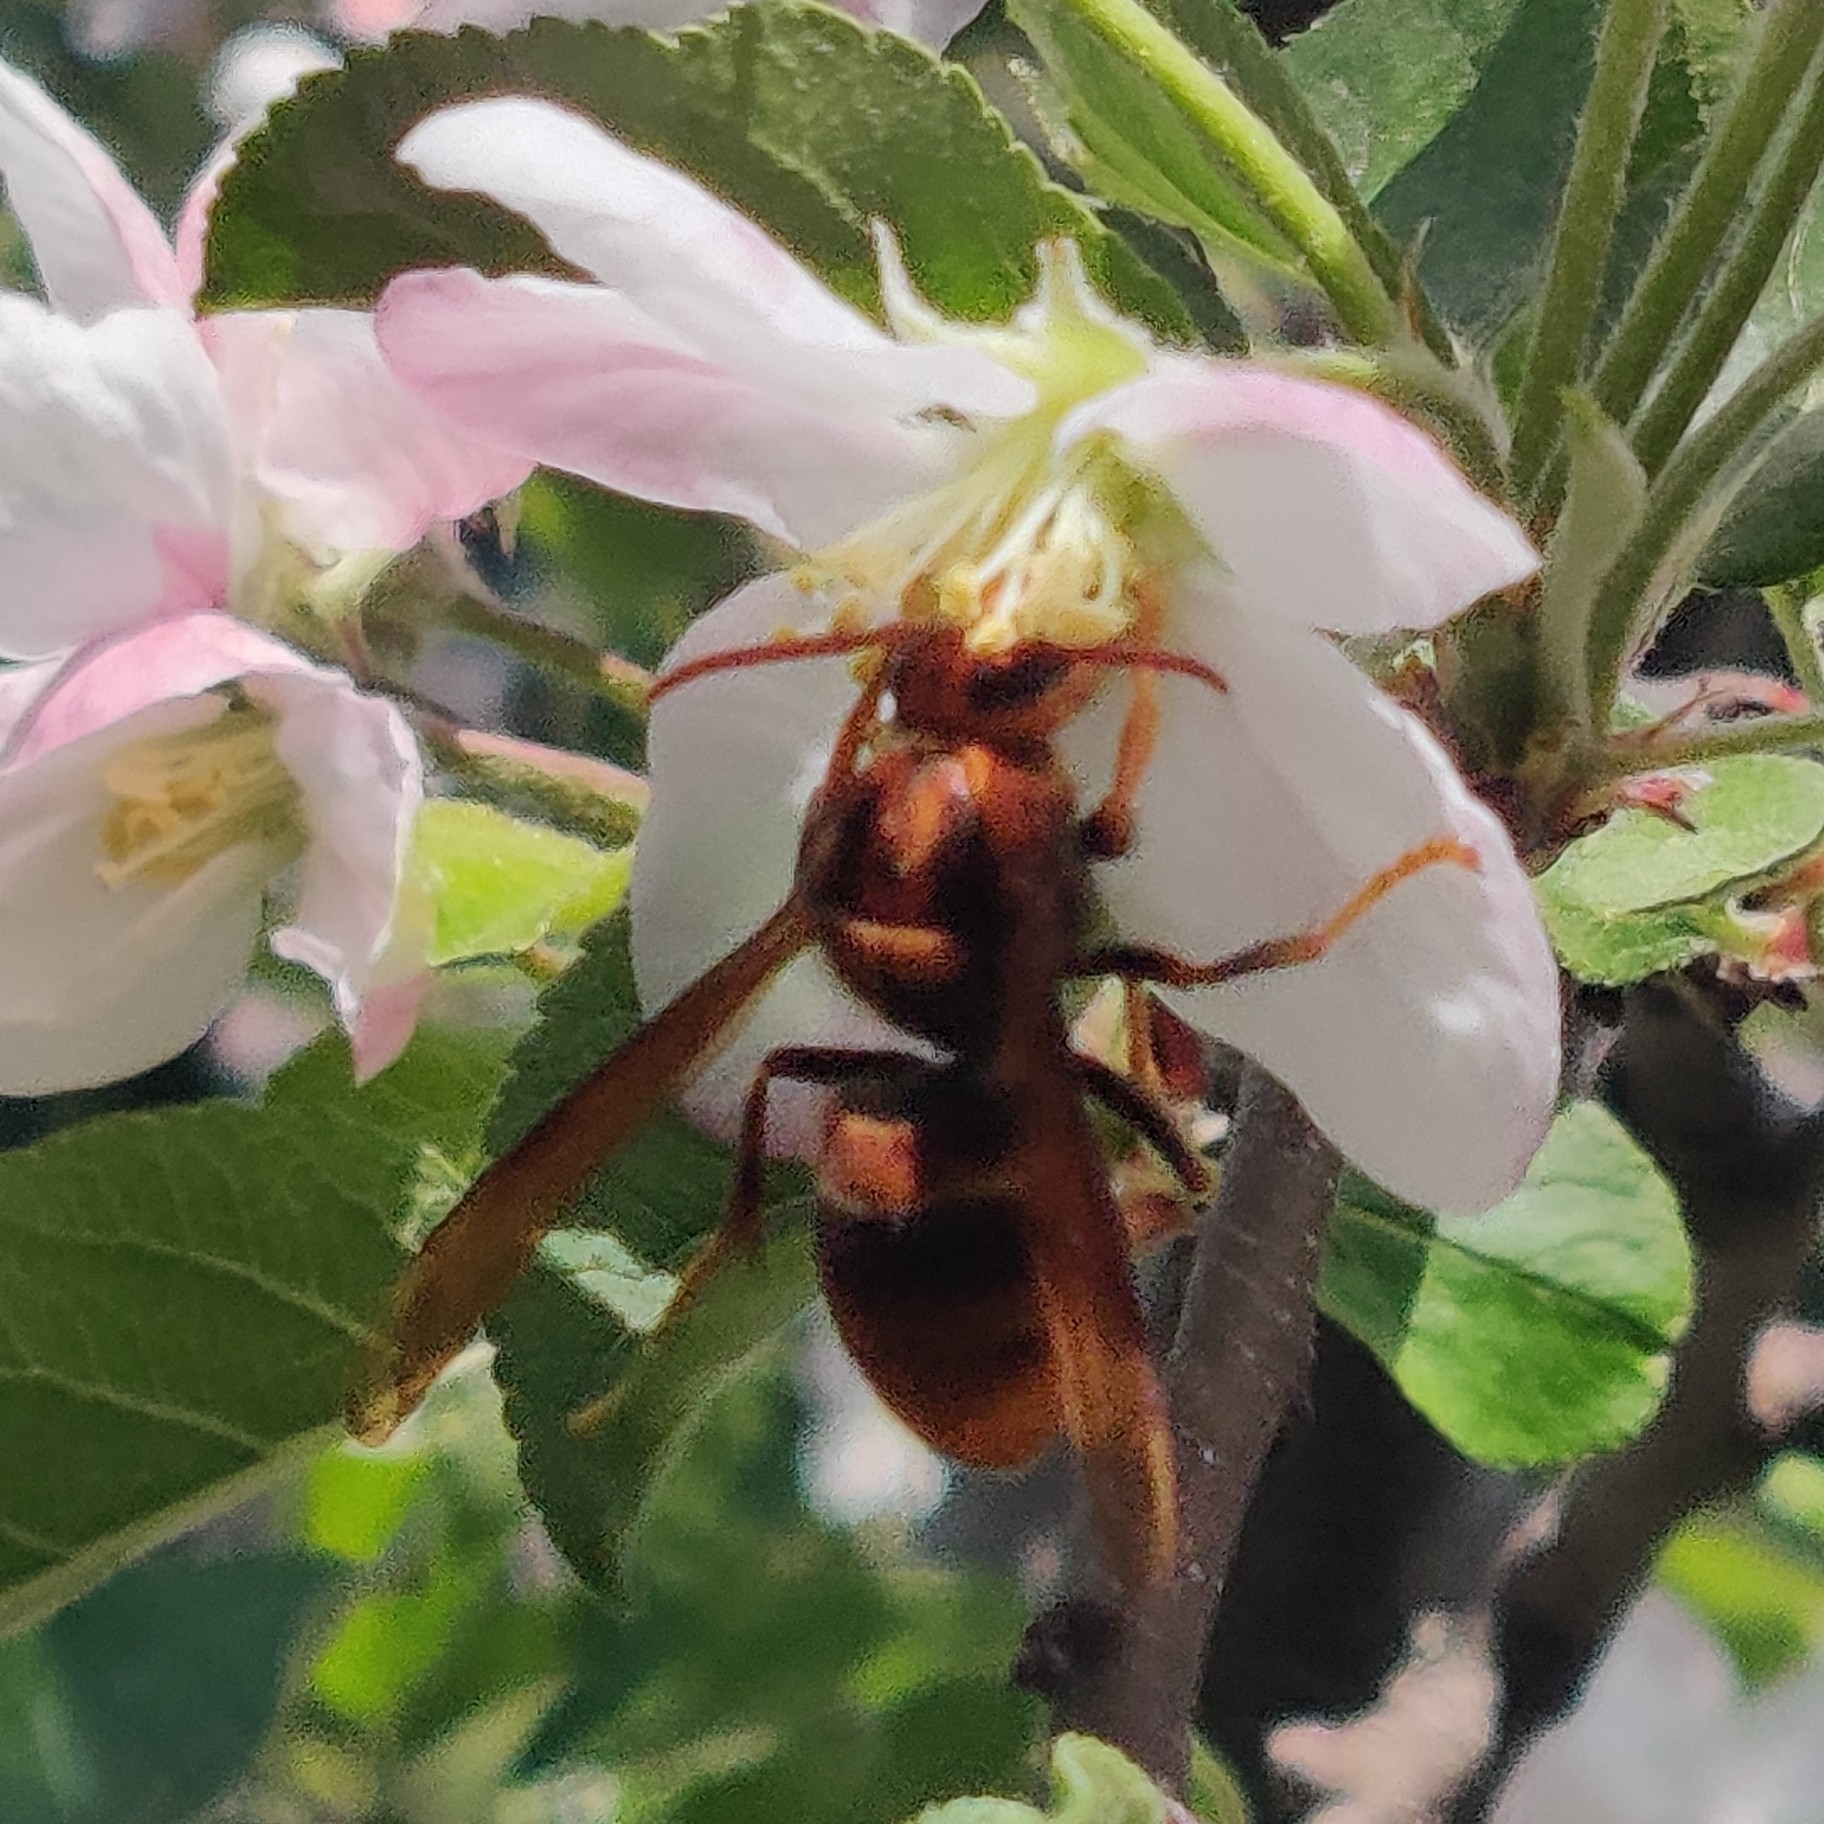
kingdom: Animalia
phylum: Arthropoda
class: Insecta
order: Hymenoptera
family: Vespidae
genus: Vespa
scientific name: Vespa velutina
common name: Asian hornet
